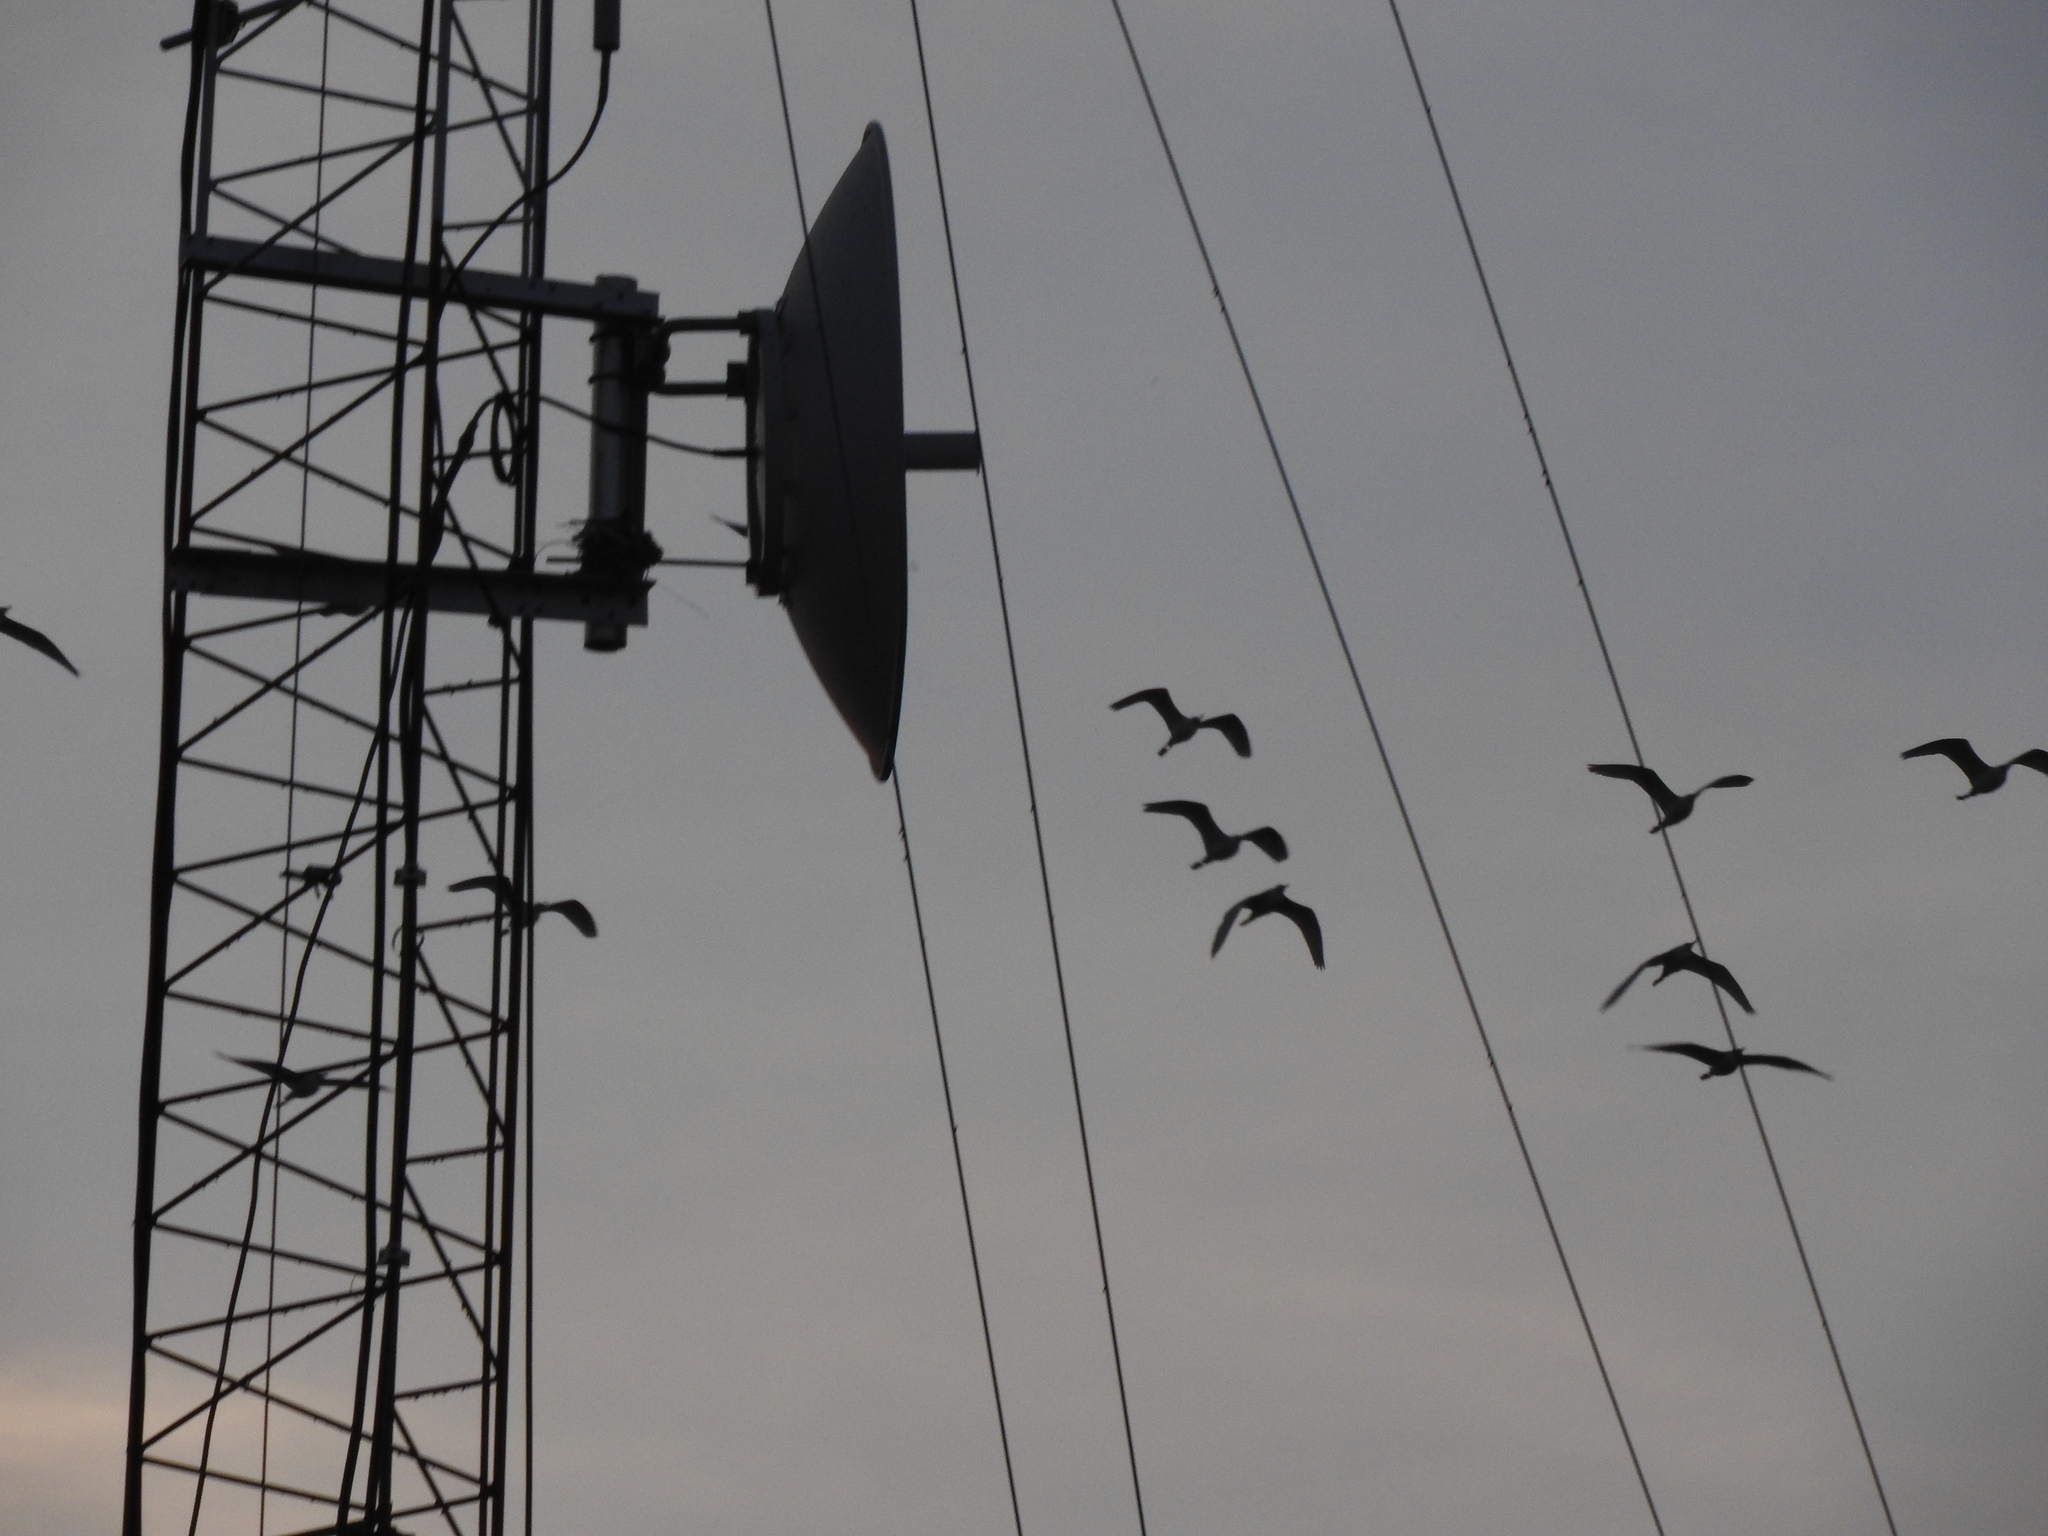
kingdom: Animalia
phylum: Chordata
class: Aves
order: Pelecaniformes
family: Ardeidae
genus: Bubulcus
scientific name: Bubulcus ibis
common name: Cattle egret
